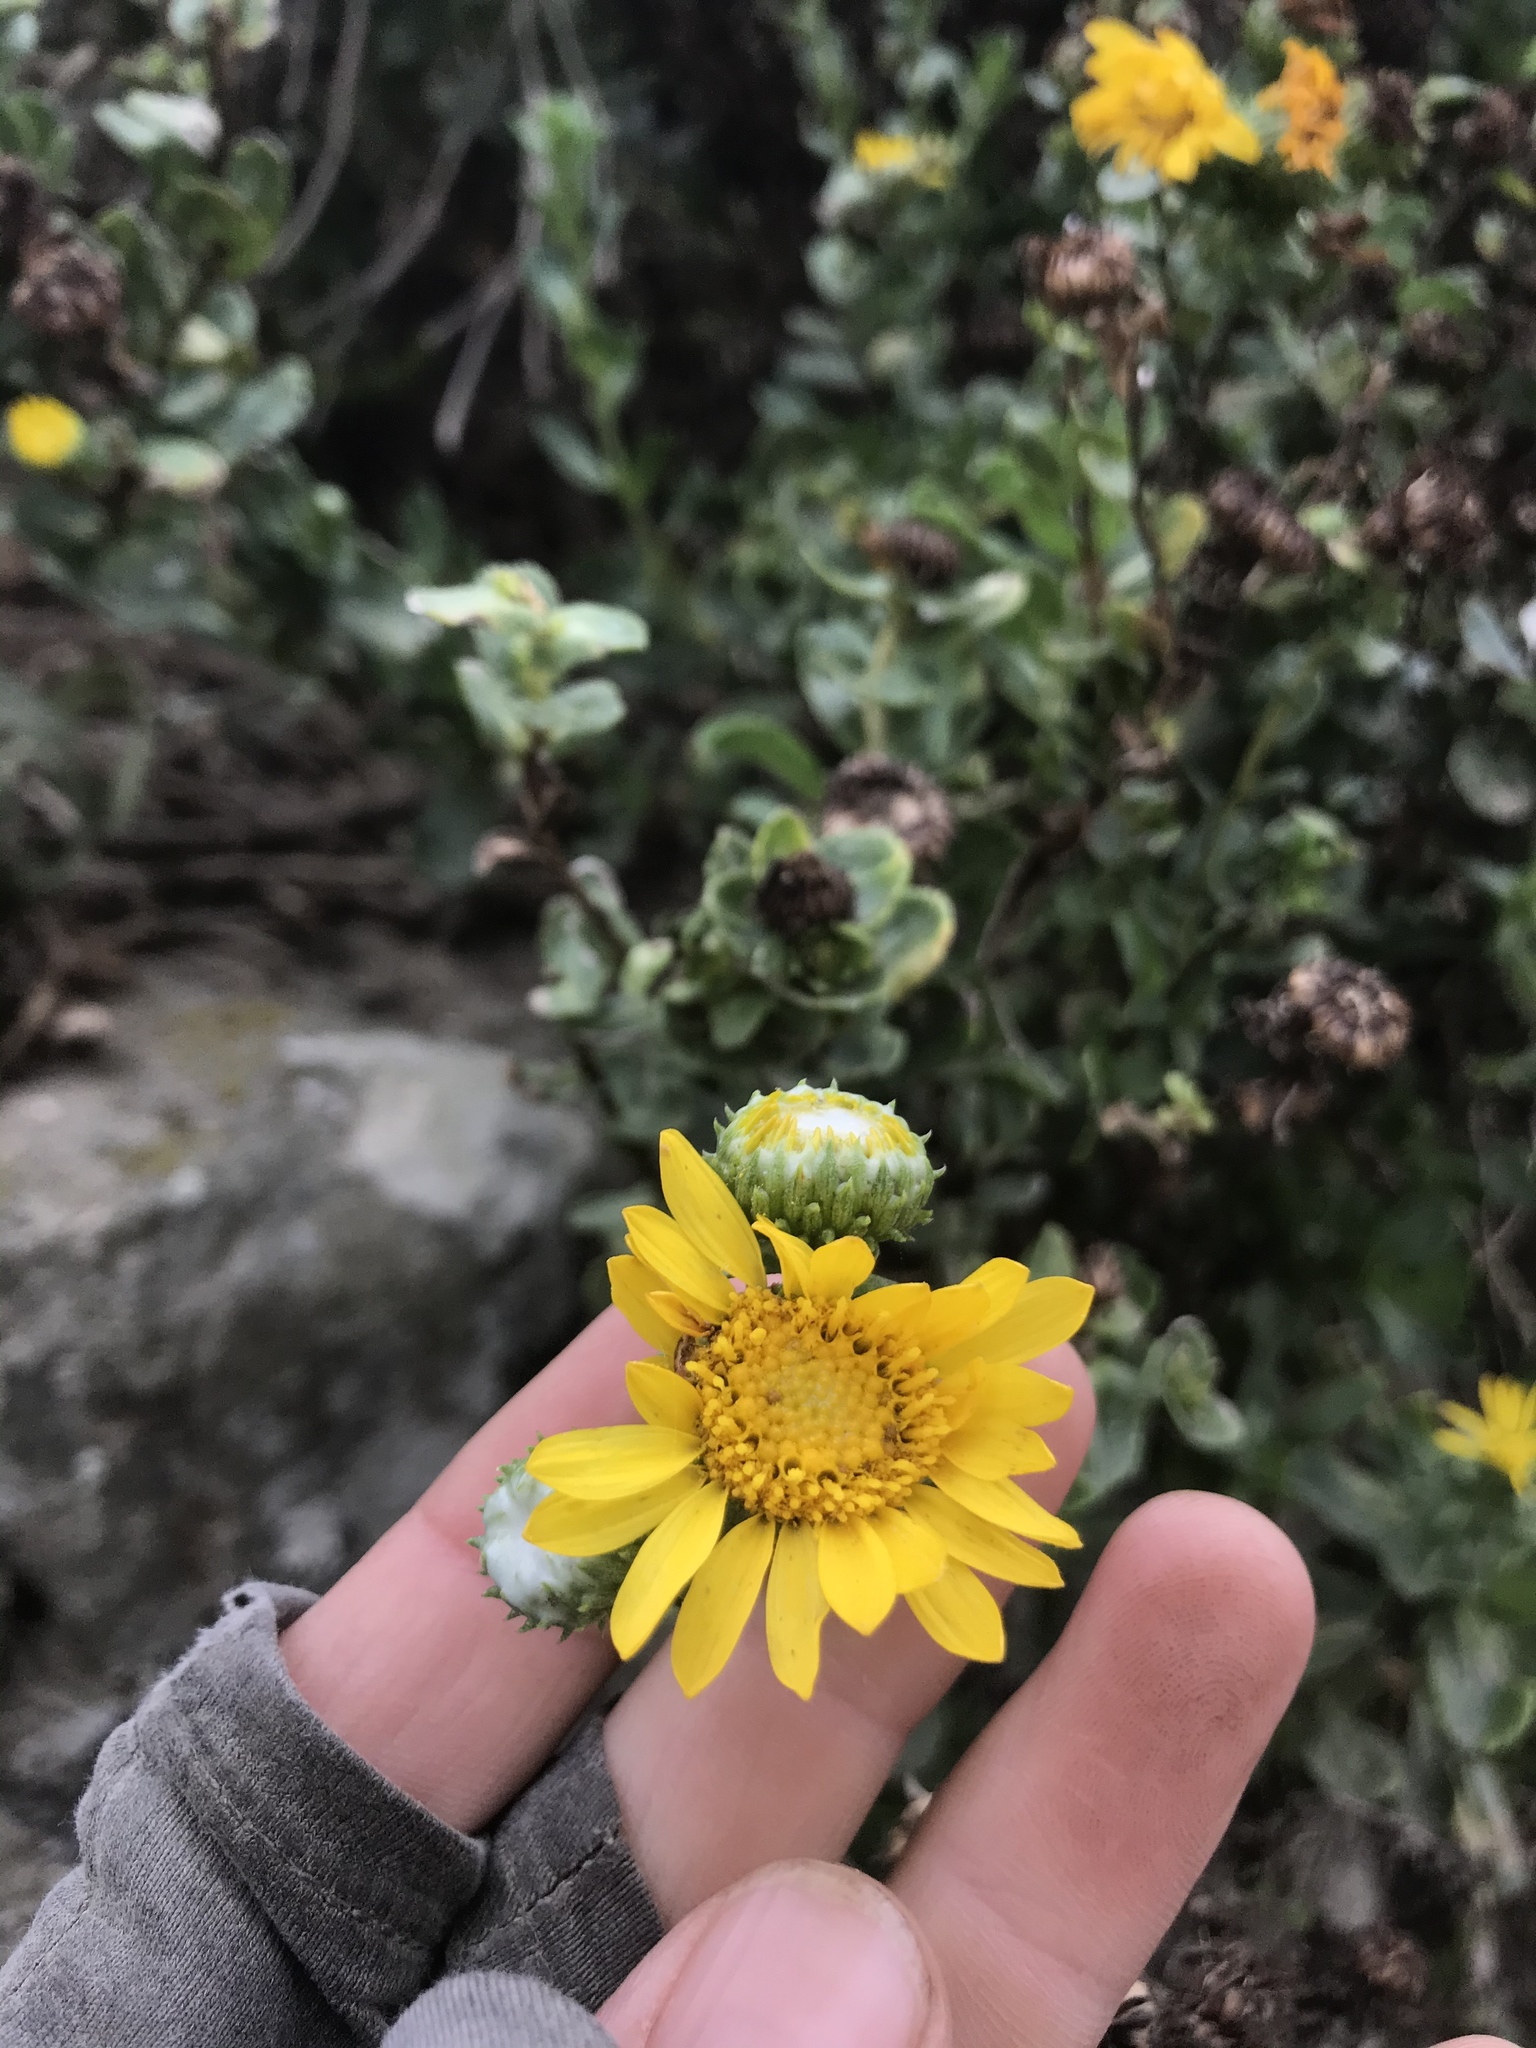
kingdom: Plantae
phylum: Tracheophyta
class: Magnoliopsida
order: Asterales
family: Asteraceae
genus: Grindelia
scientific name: Grindelia hirsutula
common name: Hairy gumweed
